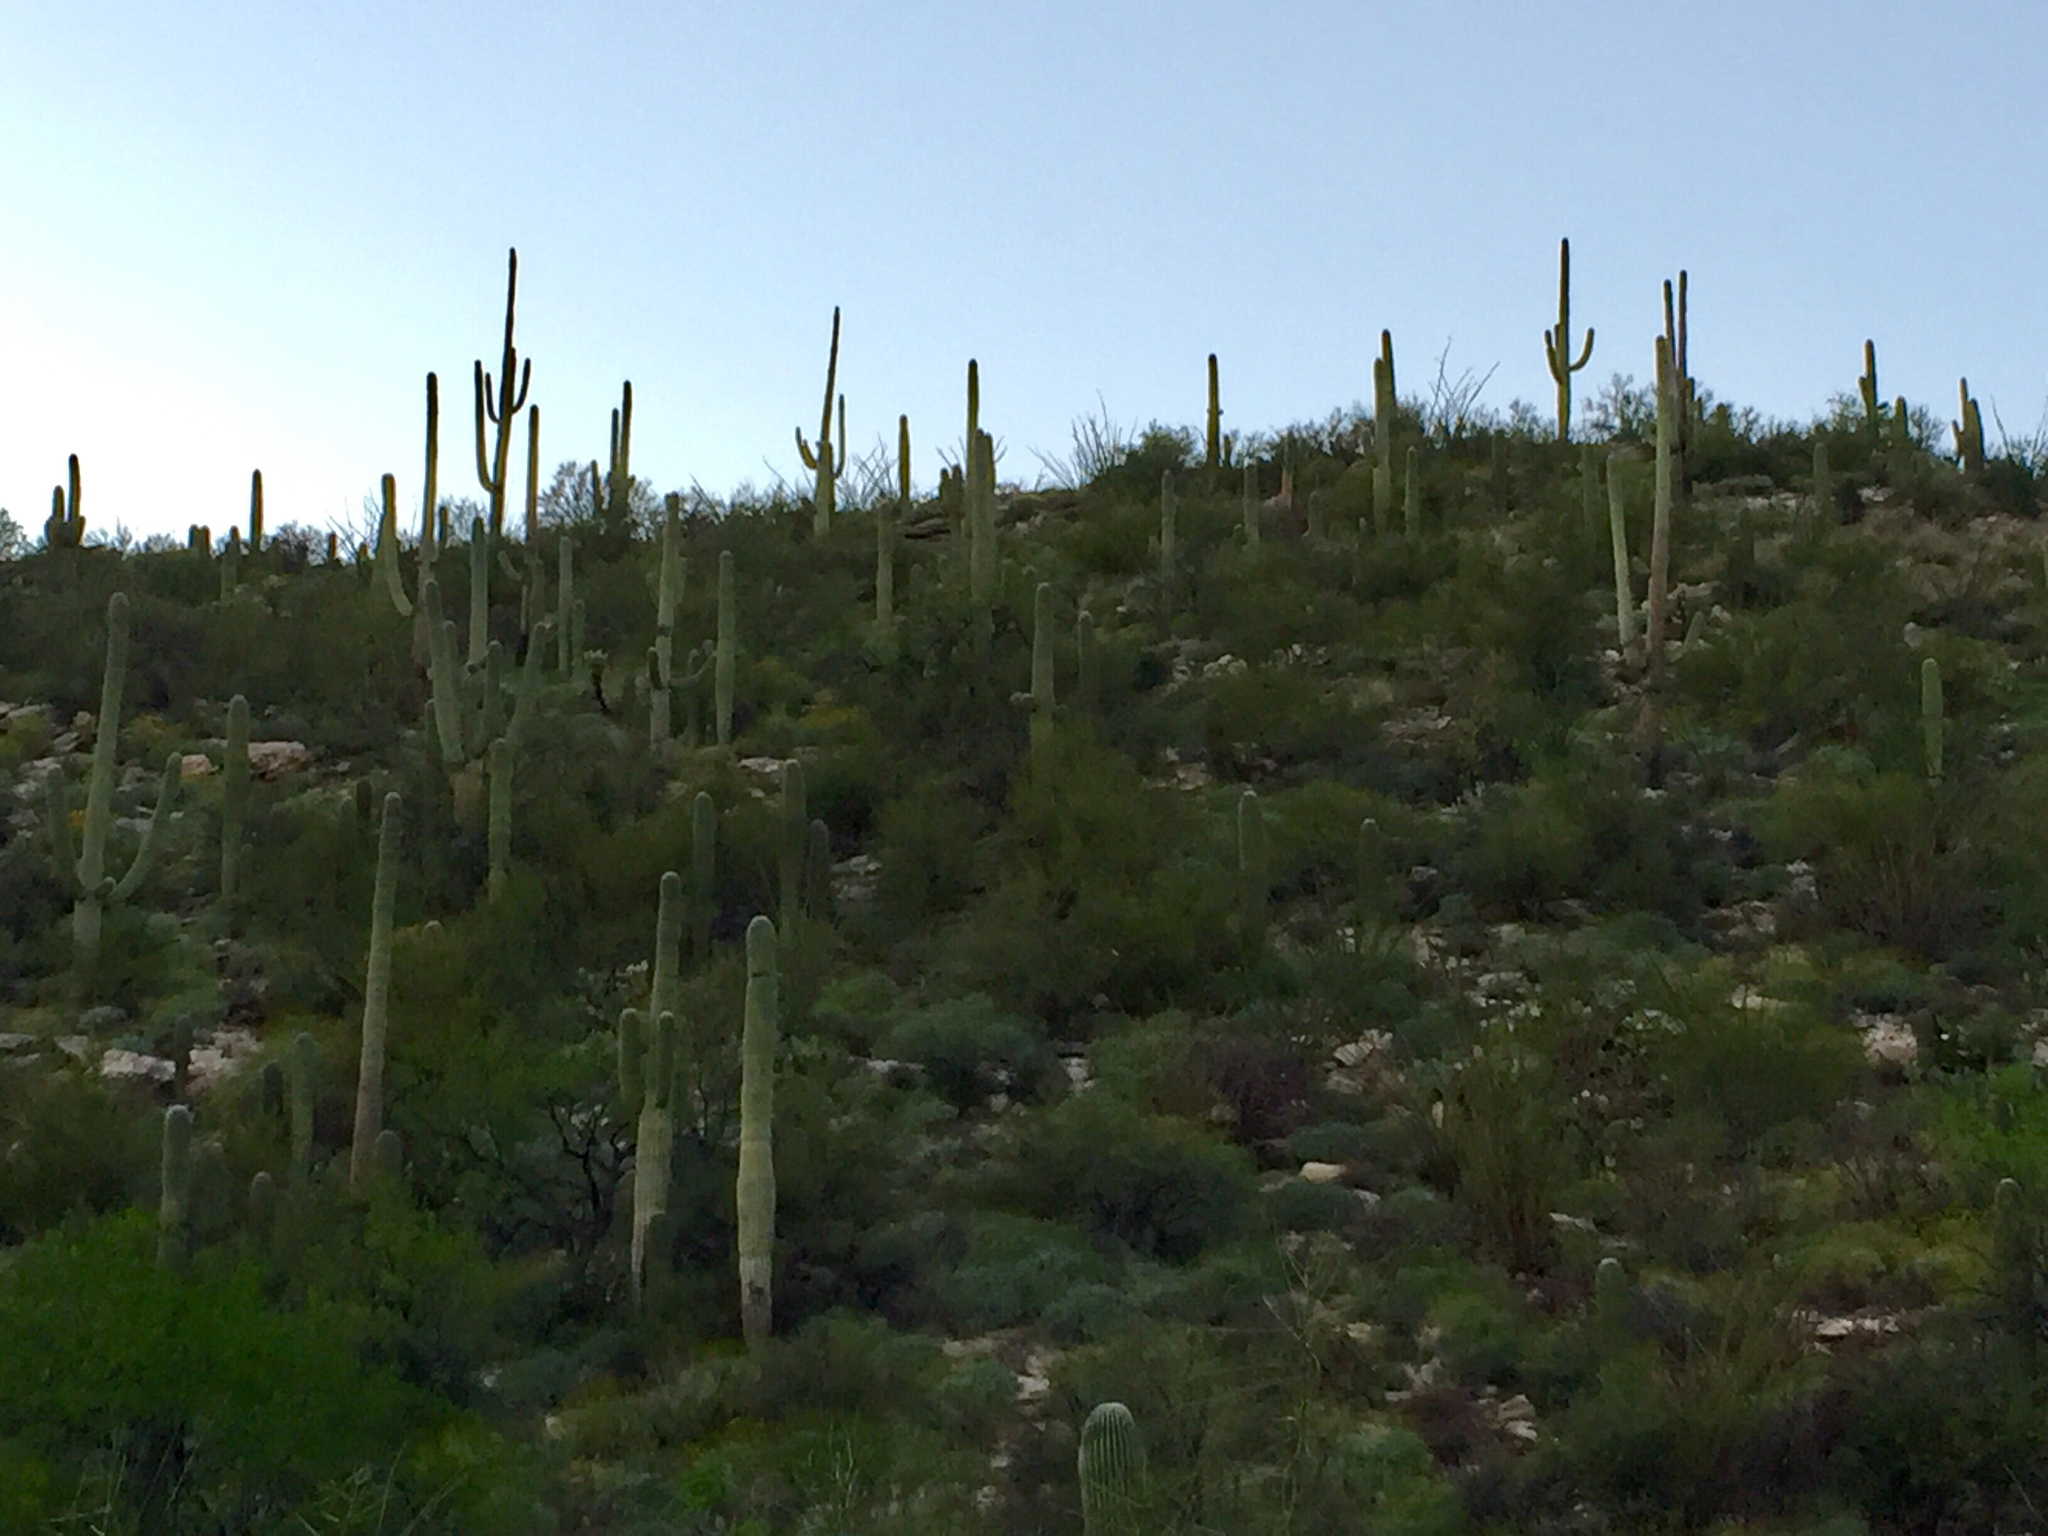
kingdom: Plantae
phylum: Tracheophyta
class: Magnoliopsida
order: Caryophyllales
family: Cactaceae
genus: Carnegiea
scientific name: Carnegiea gigantea
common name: Saguaro
